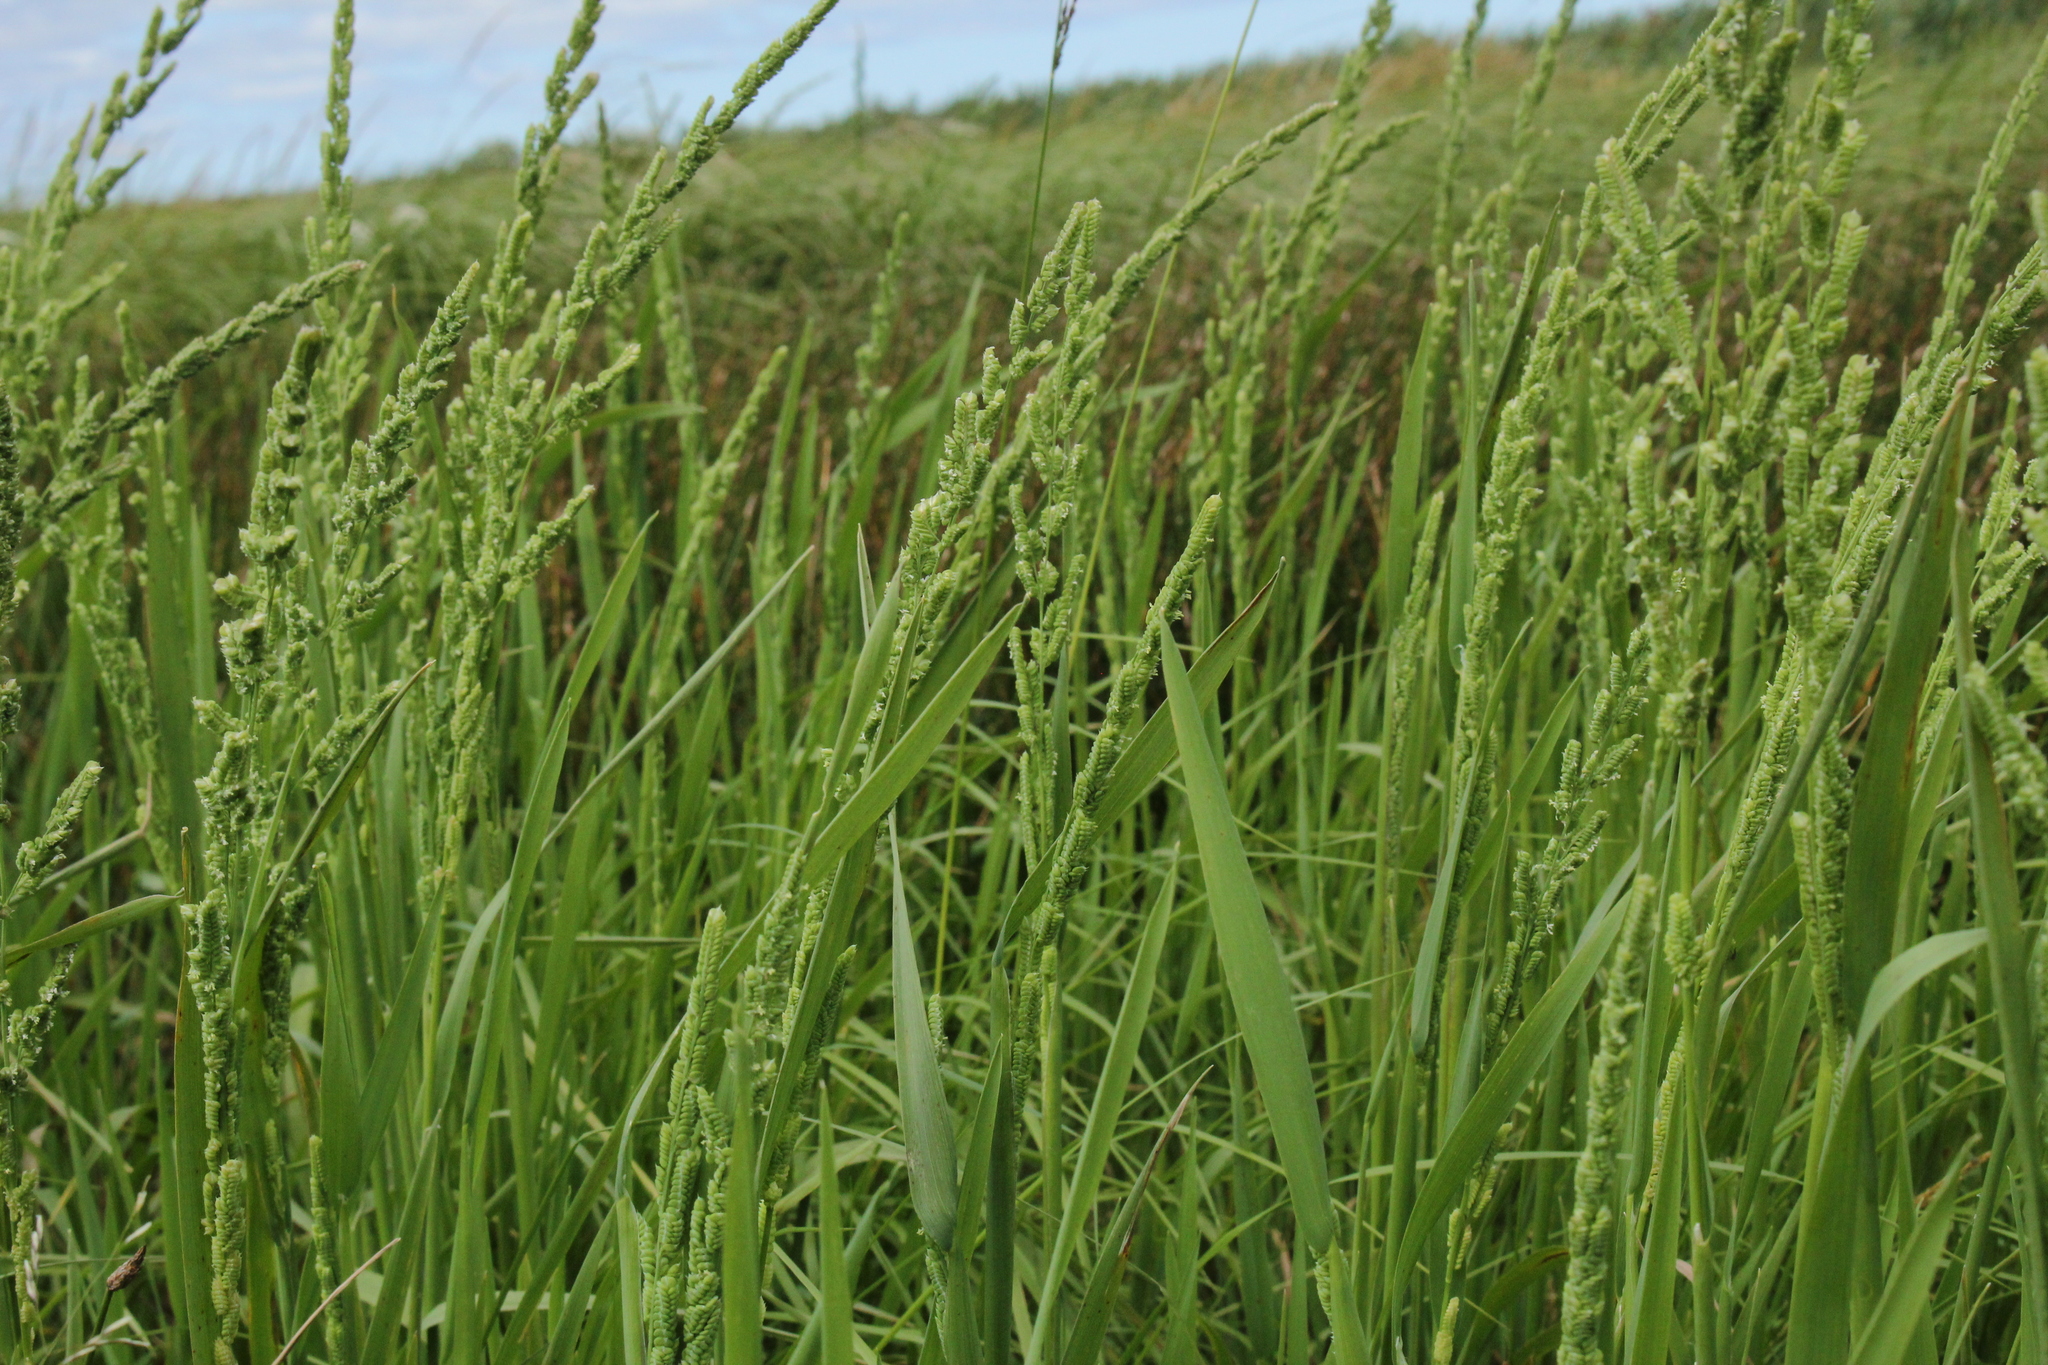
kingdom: Plantae
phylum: Tracheophyta
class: Liliopsida
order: Poales
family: Poaceae
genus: Beckmannia
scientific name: Beckmannia syzigachne
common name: American slough-grass
